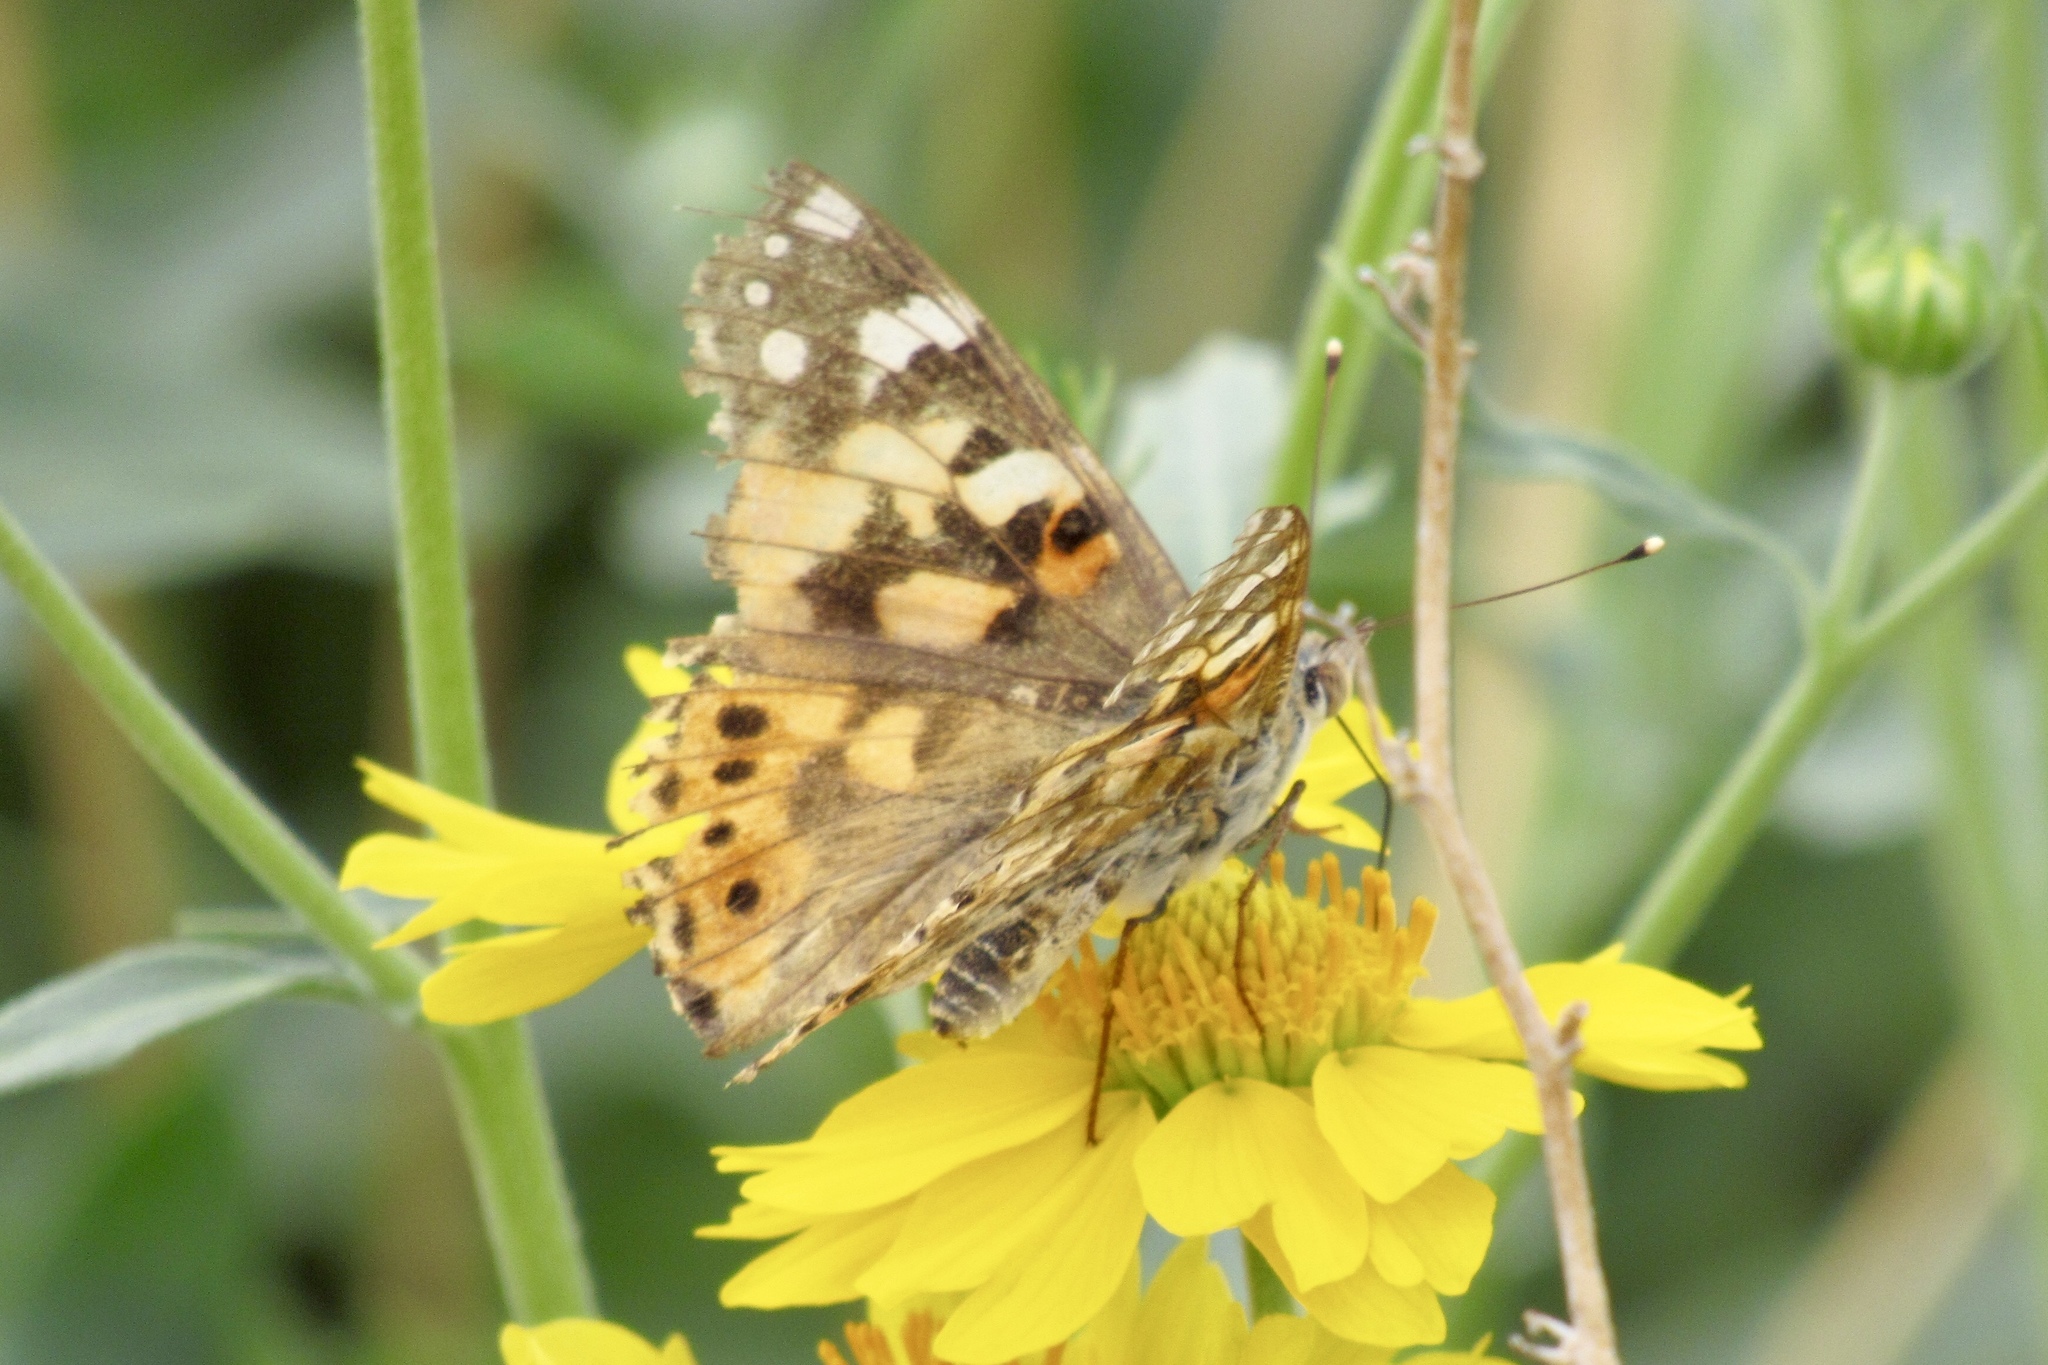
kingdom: Animalia
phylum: Arthropoda
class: Insecta
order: Lepidoptera
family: Nymphalidae
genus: Vanessa
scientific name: Vanessa cardui
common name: Painted lady
